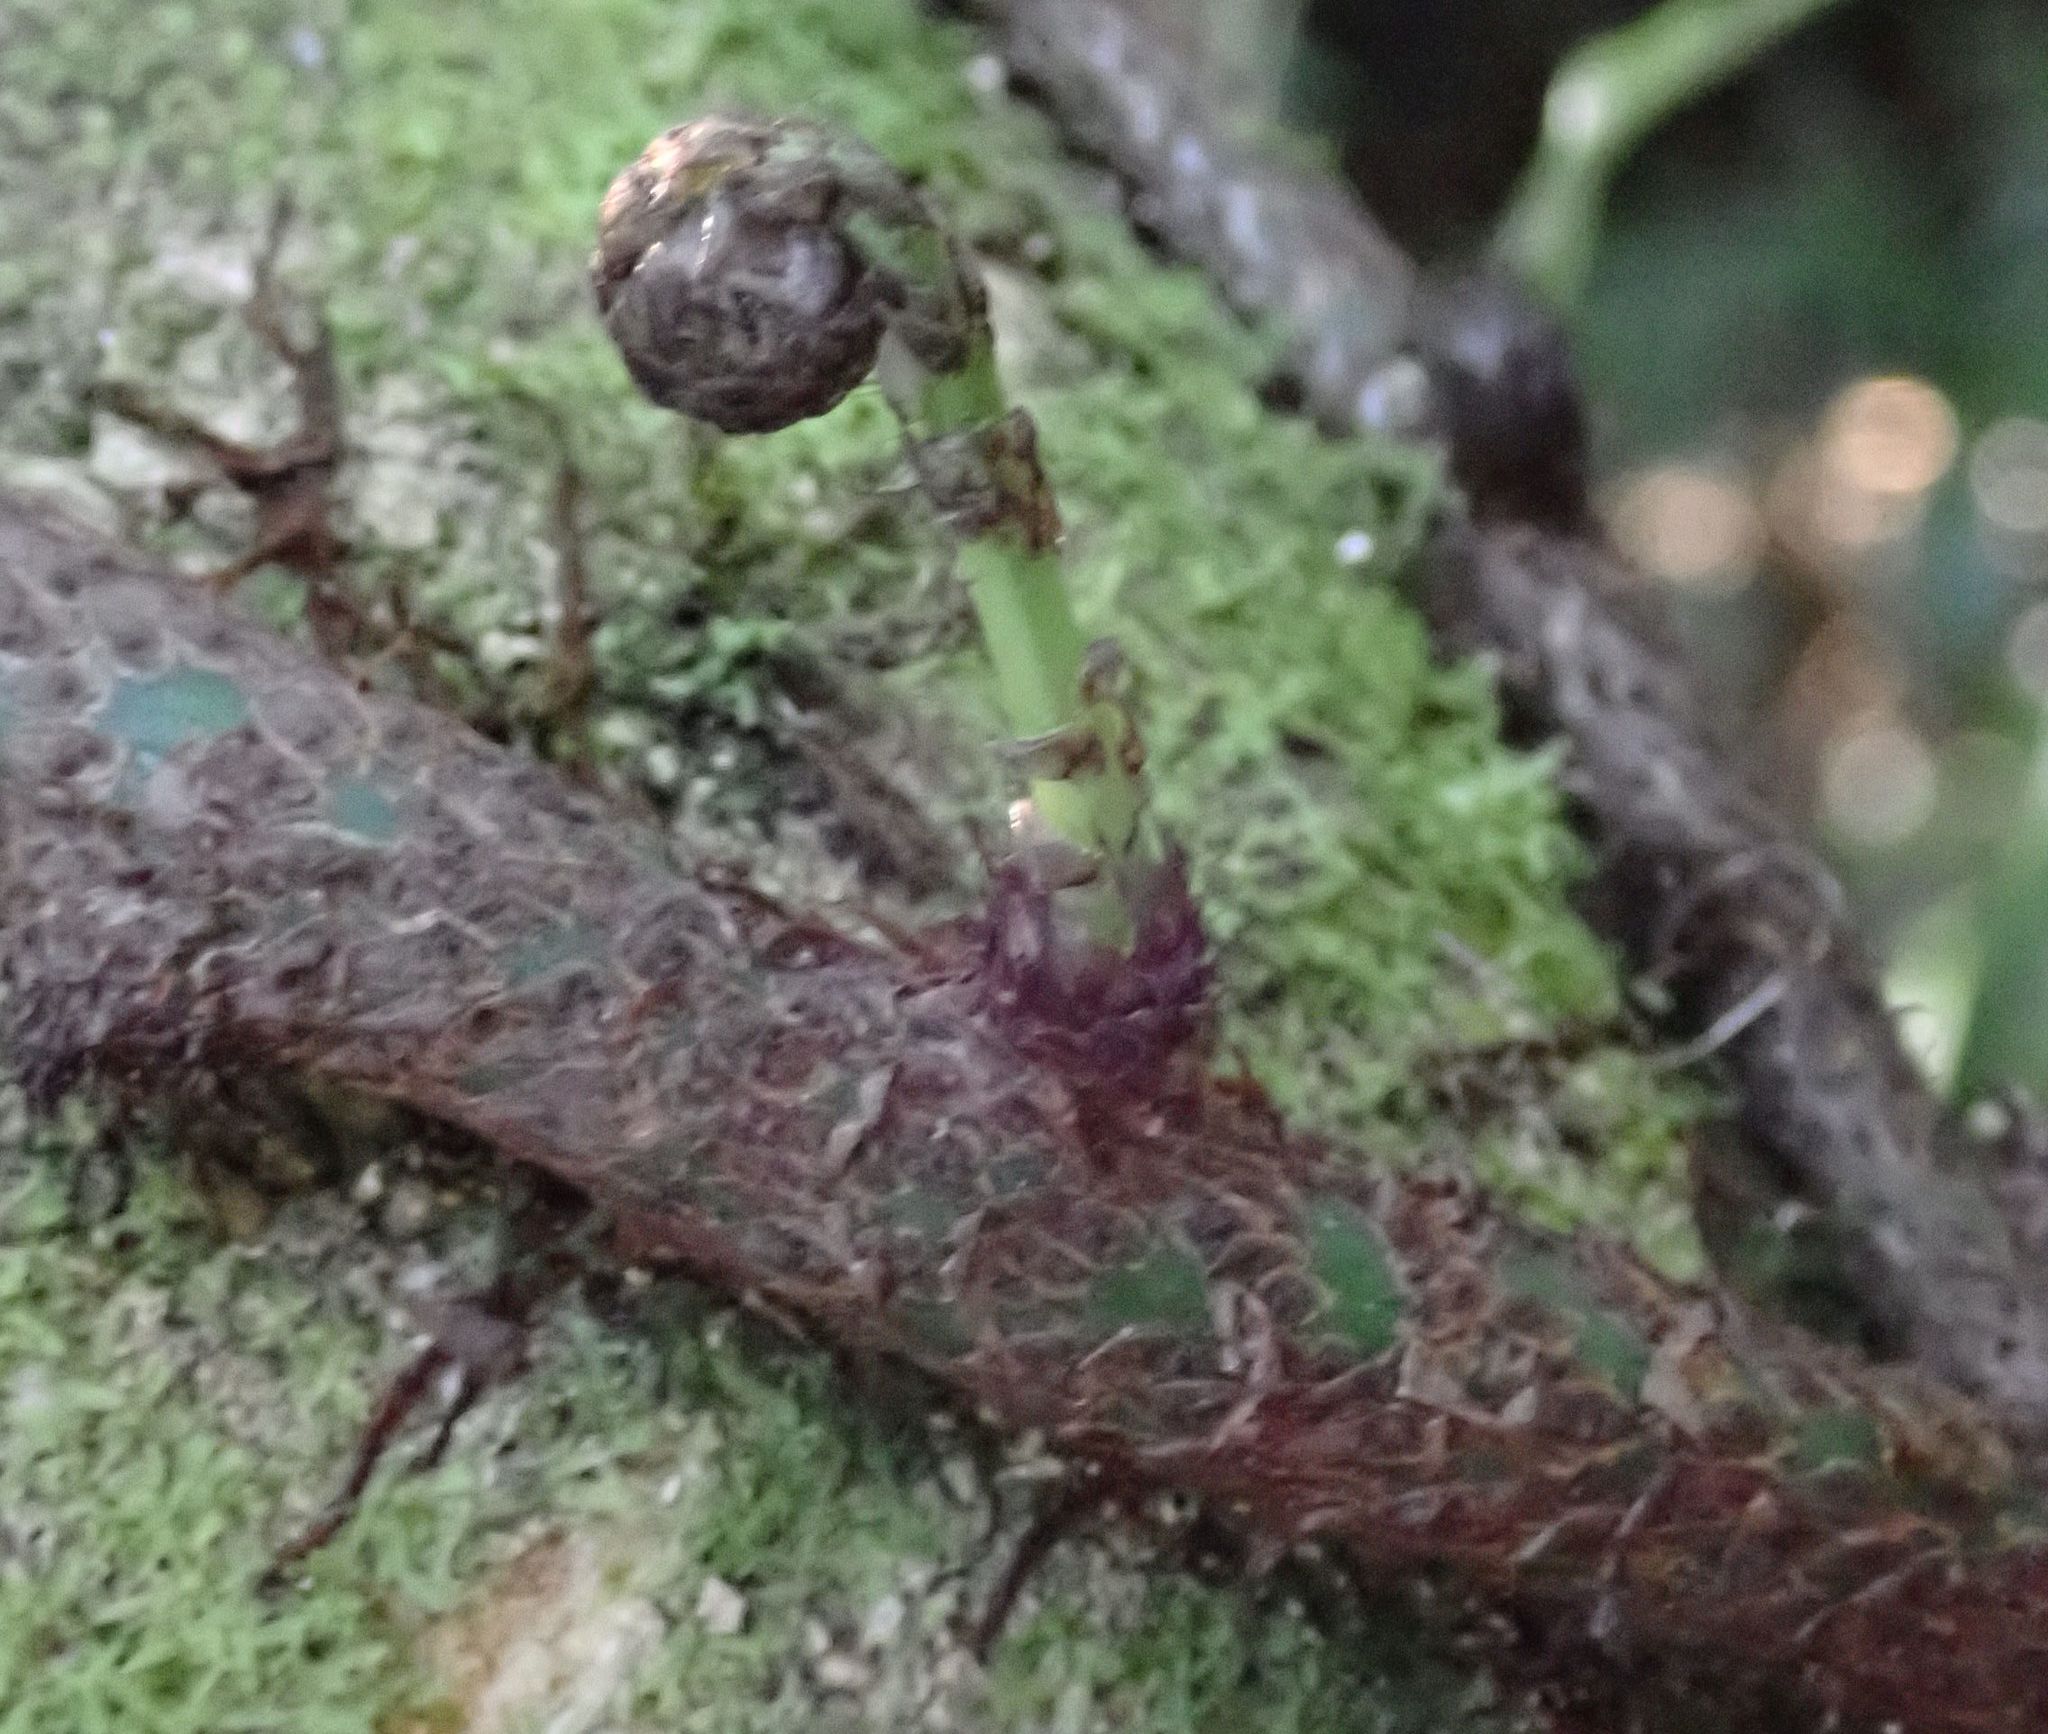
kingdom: Plantae
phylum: Tracheophyta
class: Polypodiopsida
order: Polypodiales
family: Polypodiaceae
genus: Lecanopteris
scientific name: Lecanopteris pustulata
